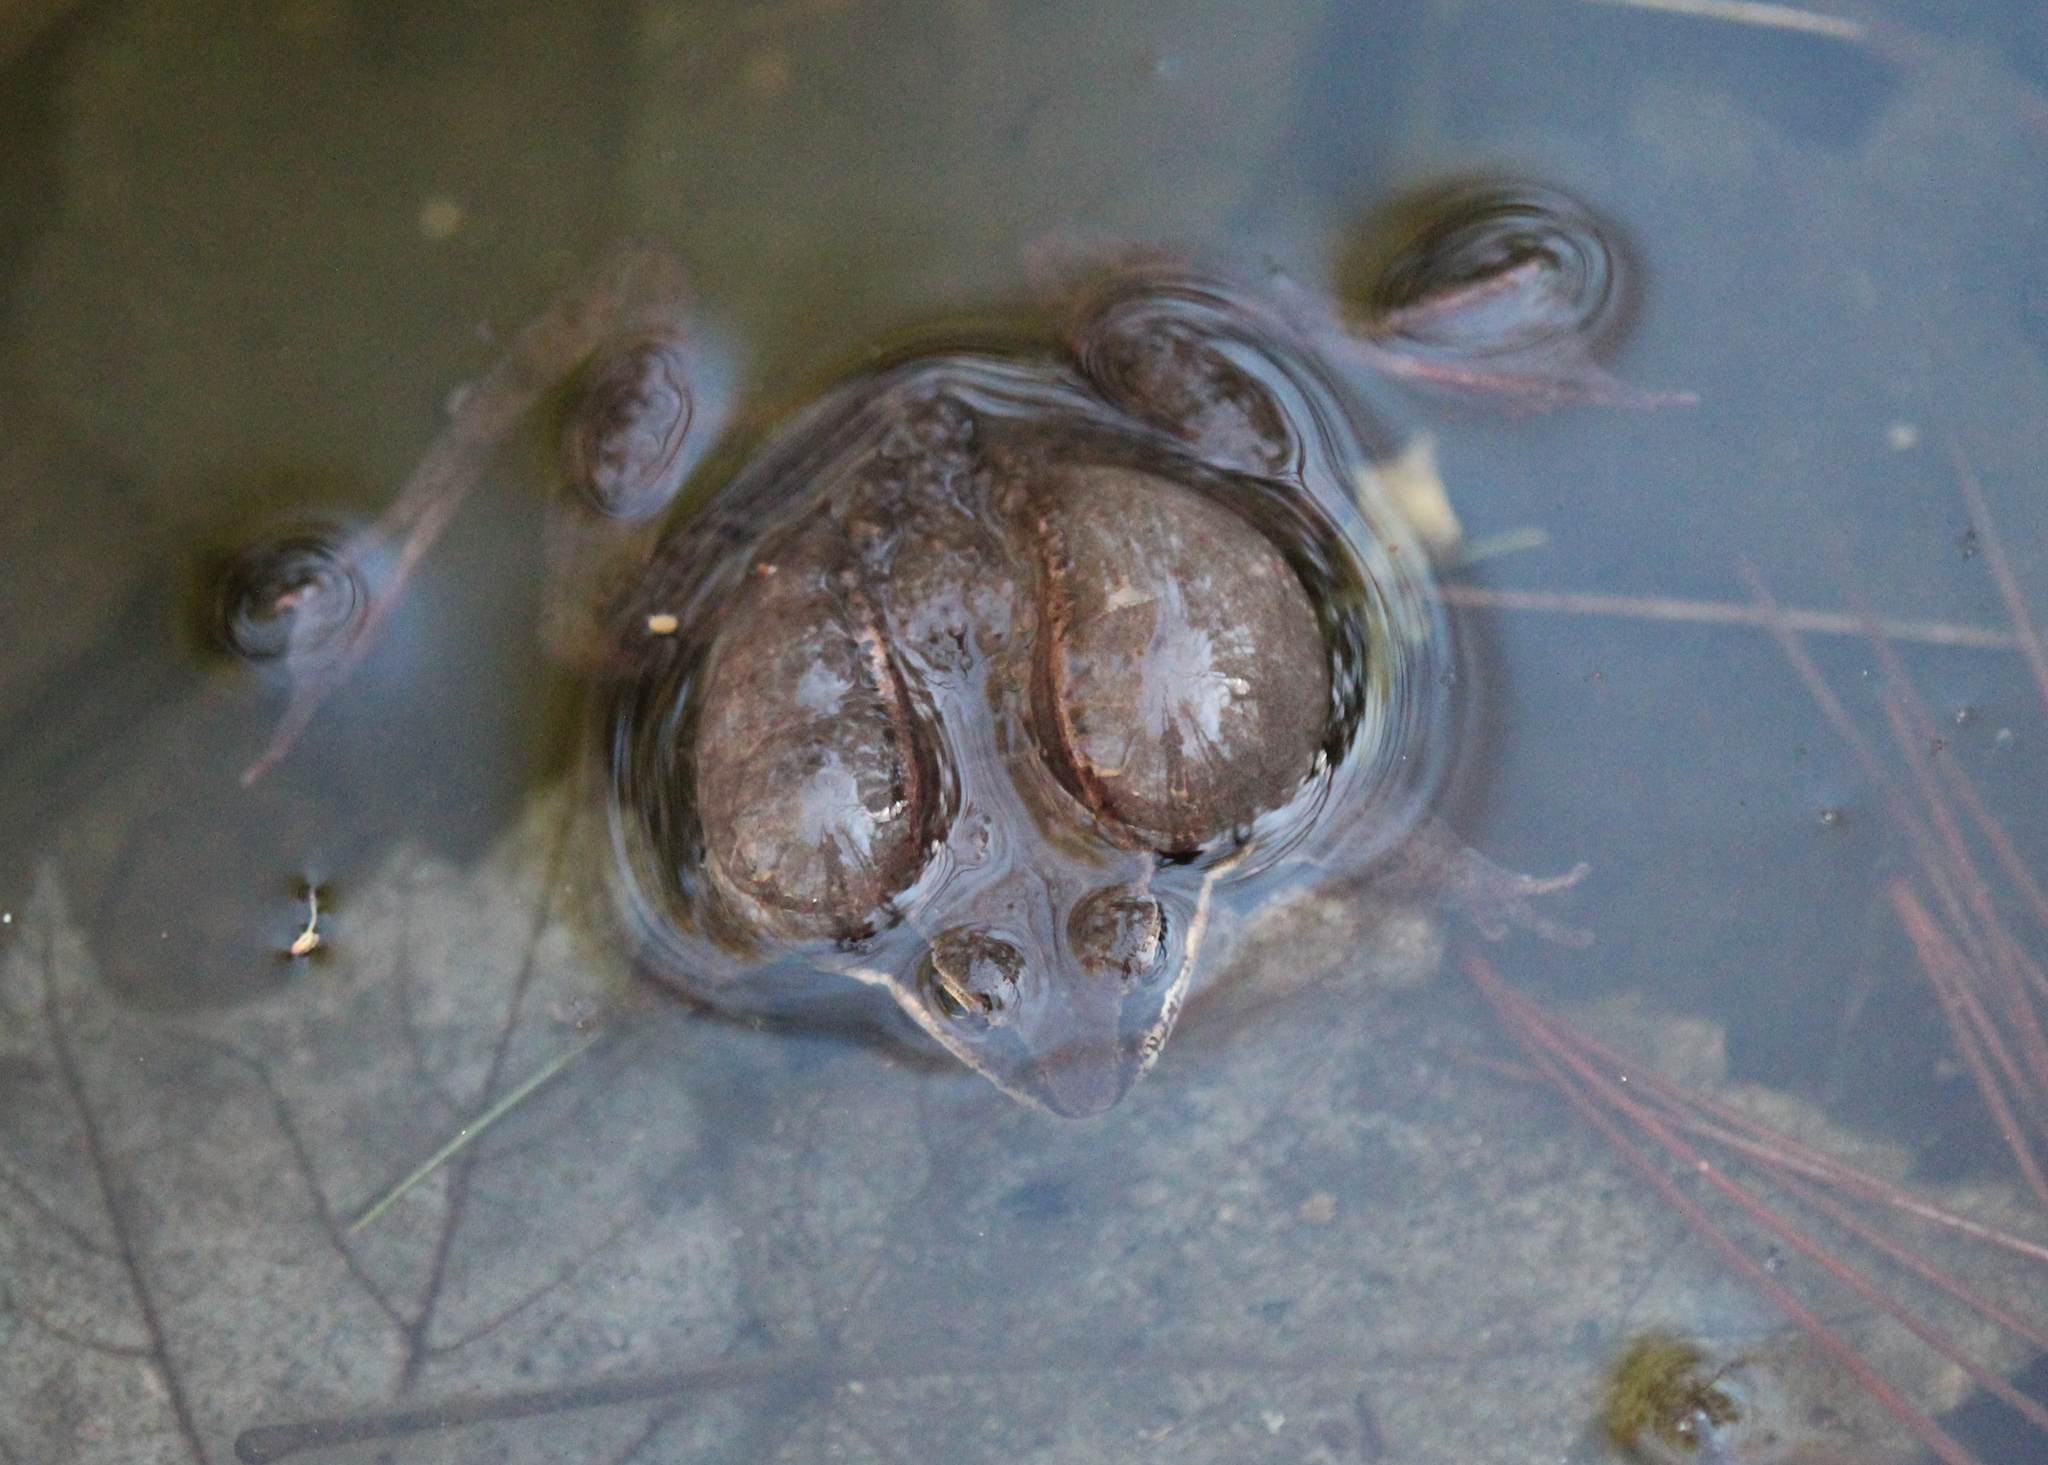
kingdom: Animalia
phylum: Chordata
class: Amphibia
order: Anura
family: Ranidae
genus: Lithobates
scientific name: Lithobates sylvaticus
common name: Wood frog
